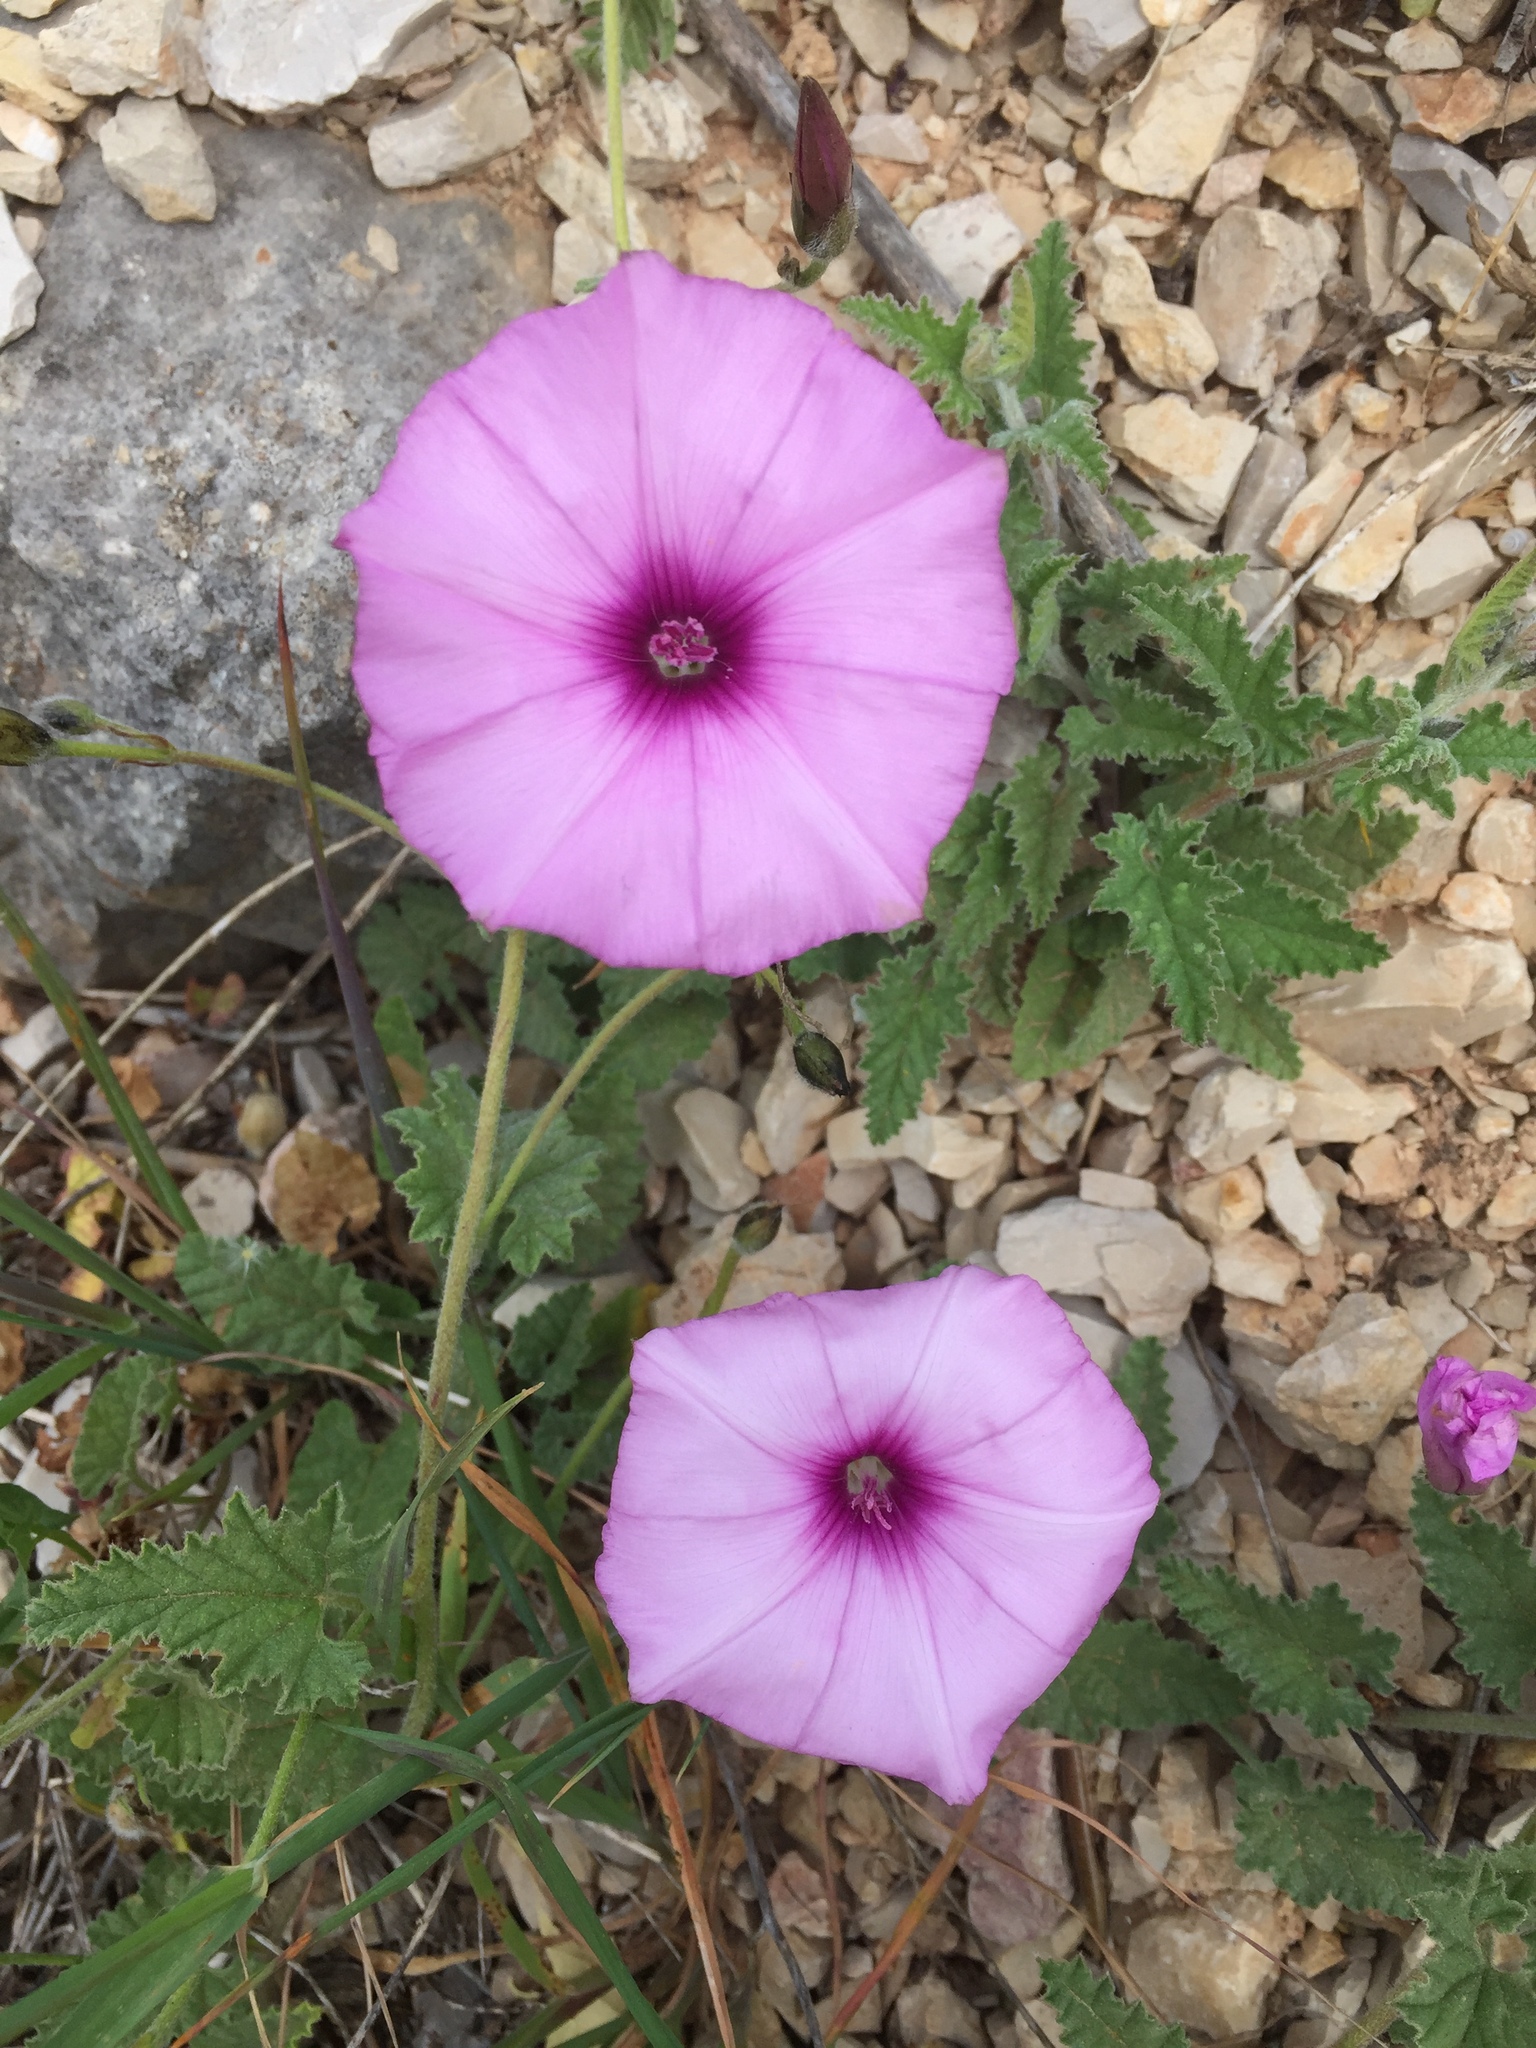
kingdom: Plantae
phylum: Tracheophyta
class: Magnoliopsida
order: Solanales
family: Convolvulaceae
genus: Convolvulus
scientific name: Convolvulus althaeoides
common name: Mallow bindweed
